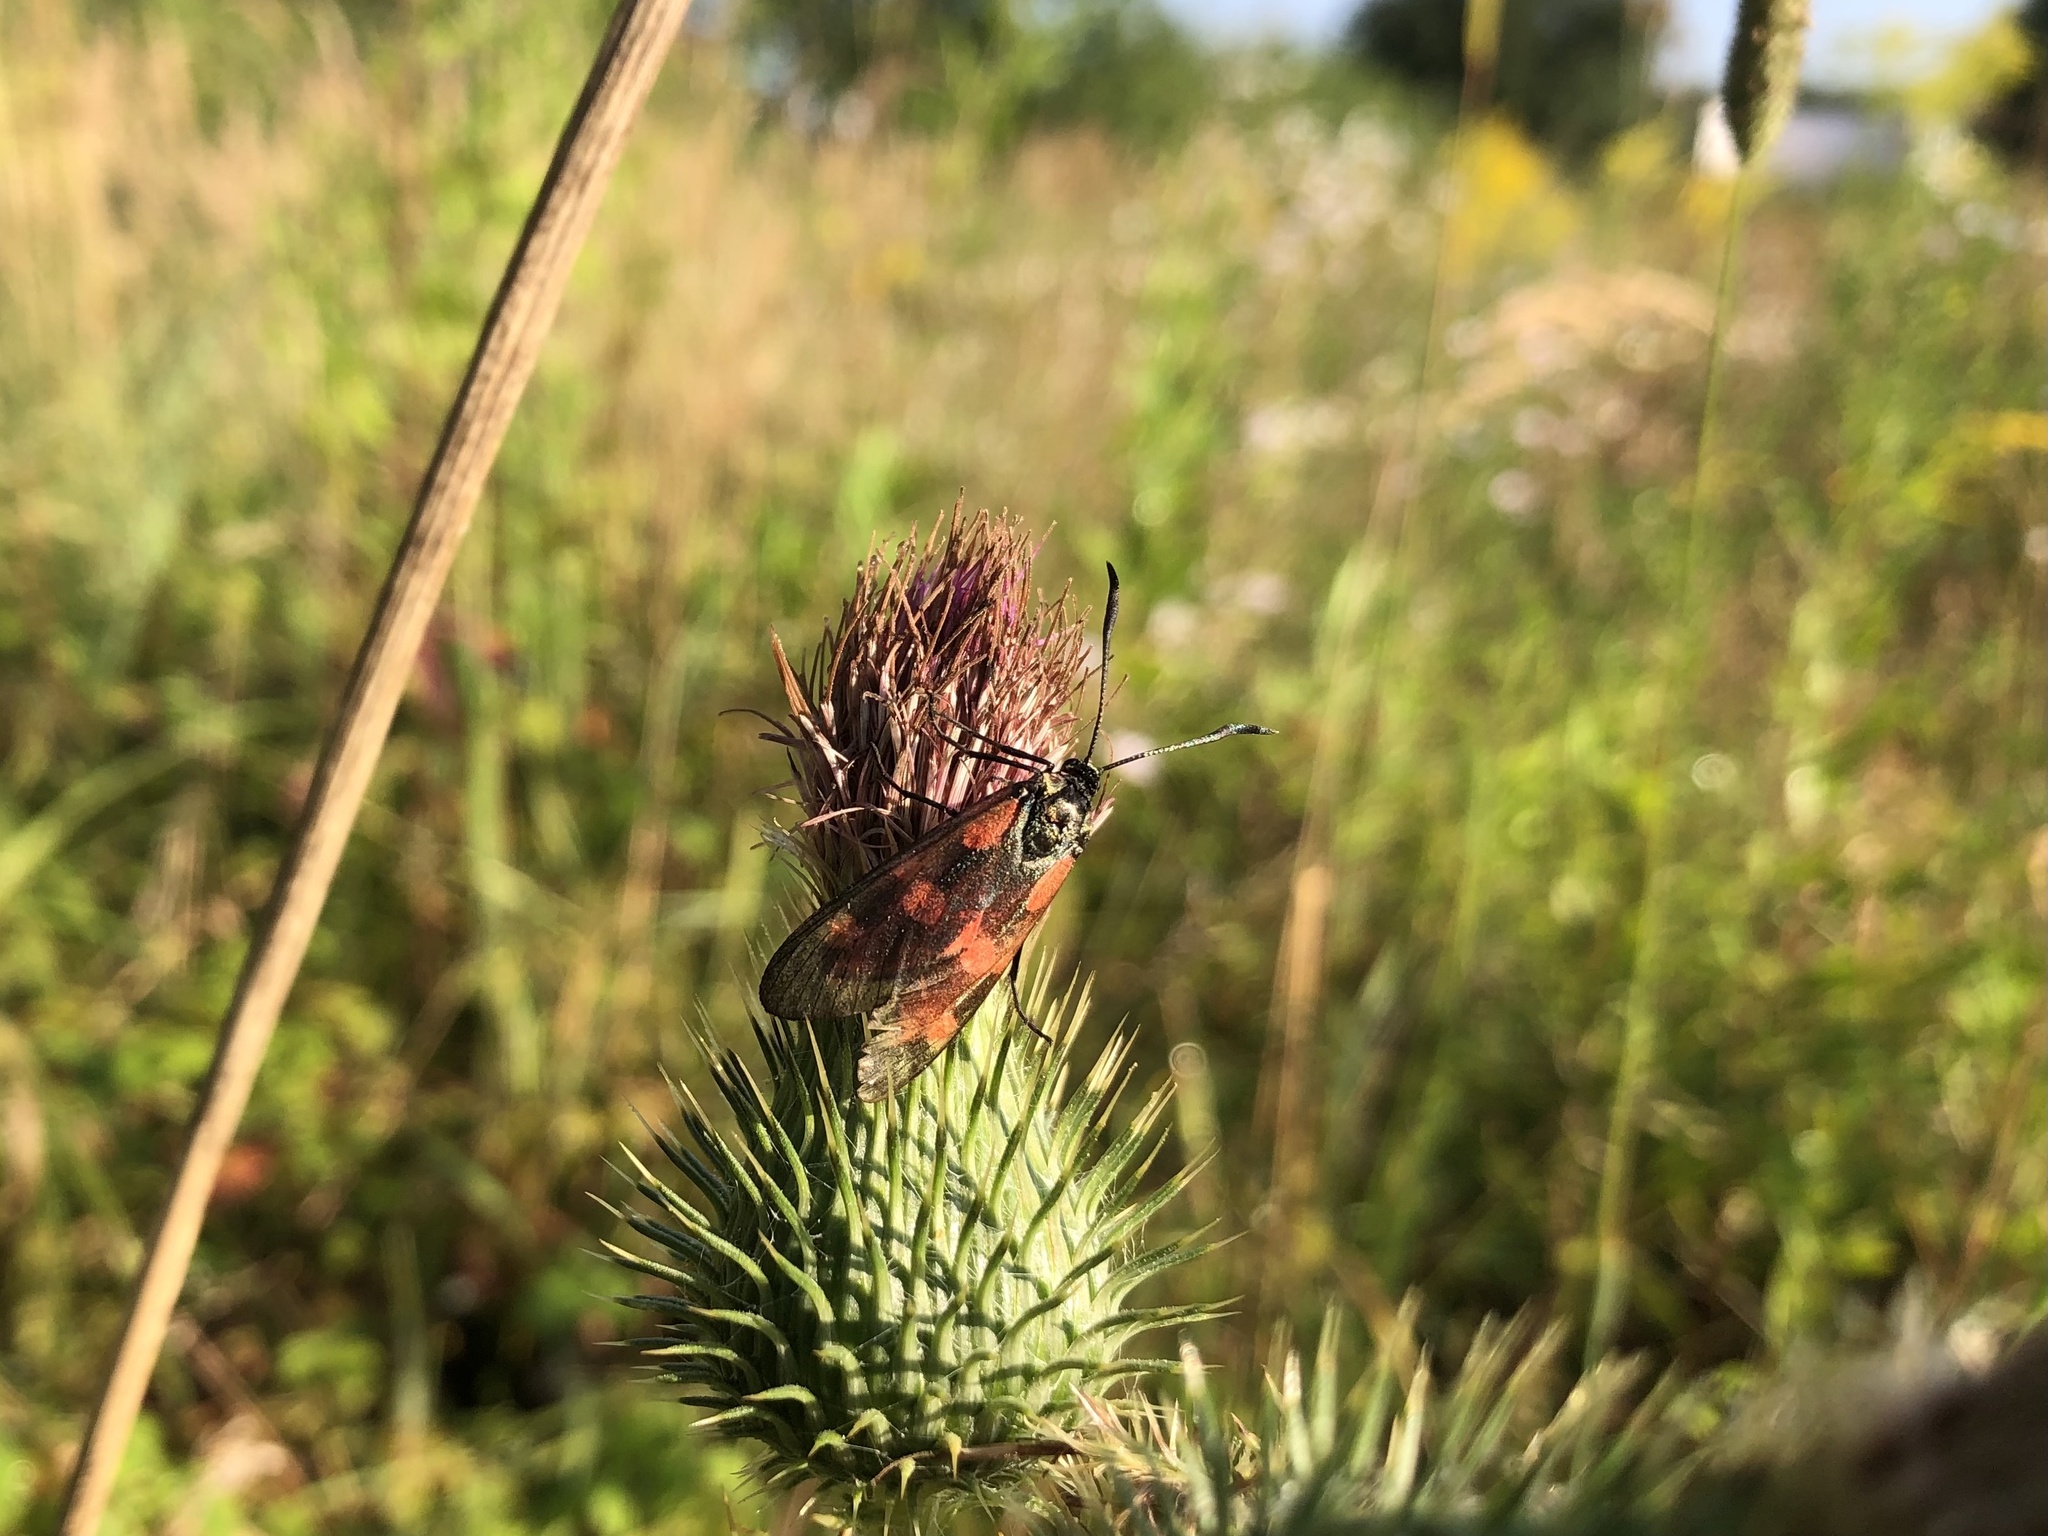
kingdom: Animalia
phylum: Arthropoda
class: Insecta
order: Lepidoptera
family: Zygaenidae
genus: Zygaena
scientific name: Zygaena filipendulae
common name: Six-spot burnet
